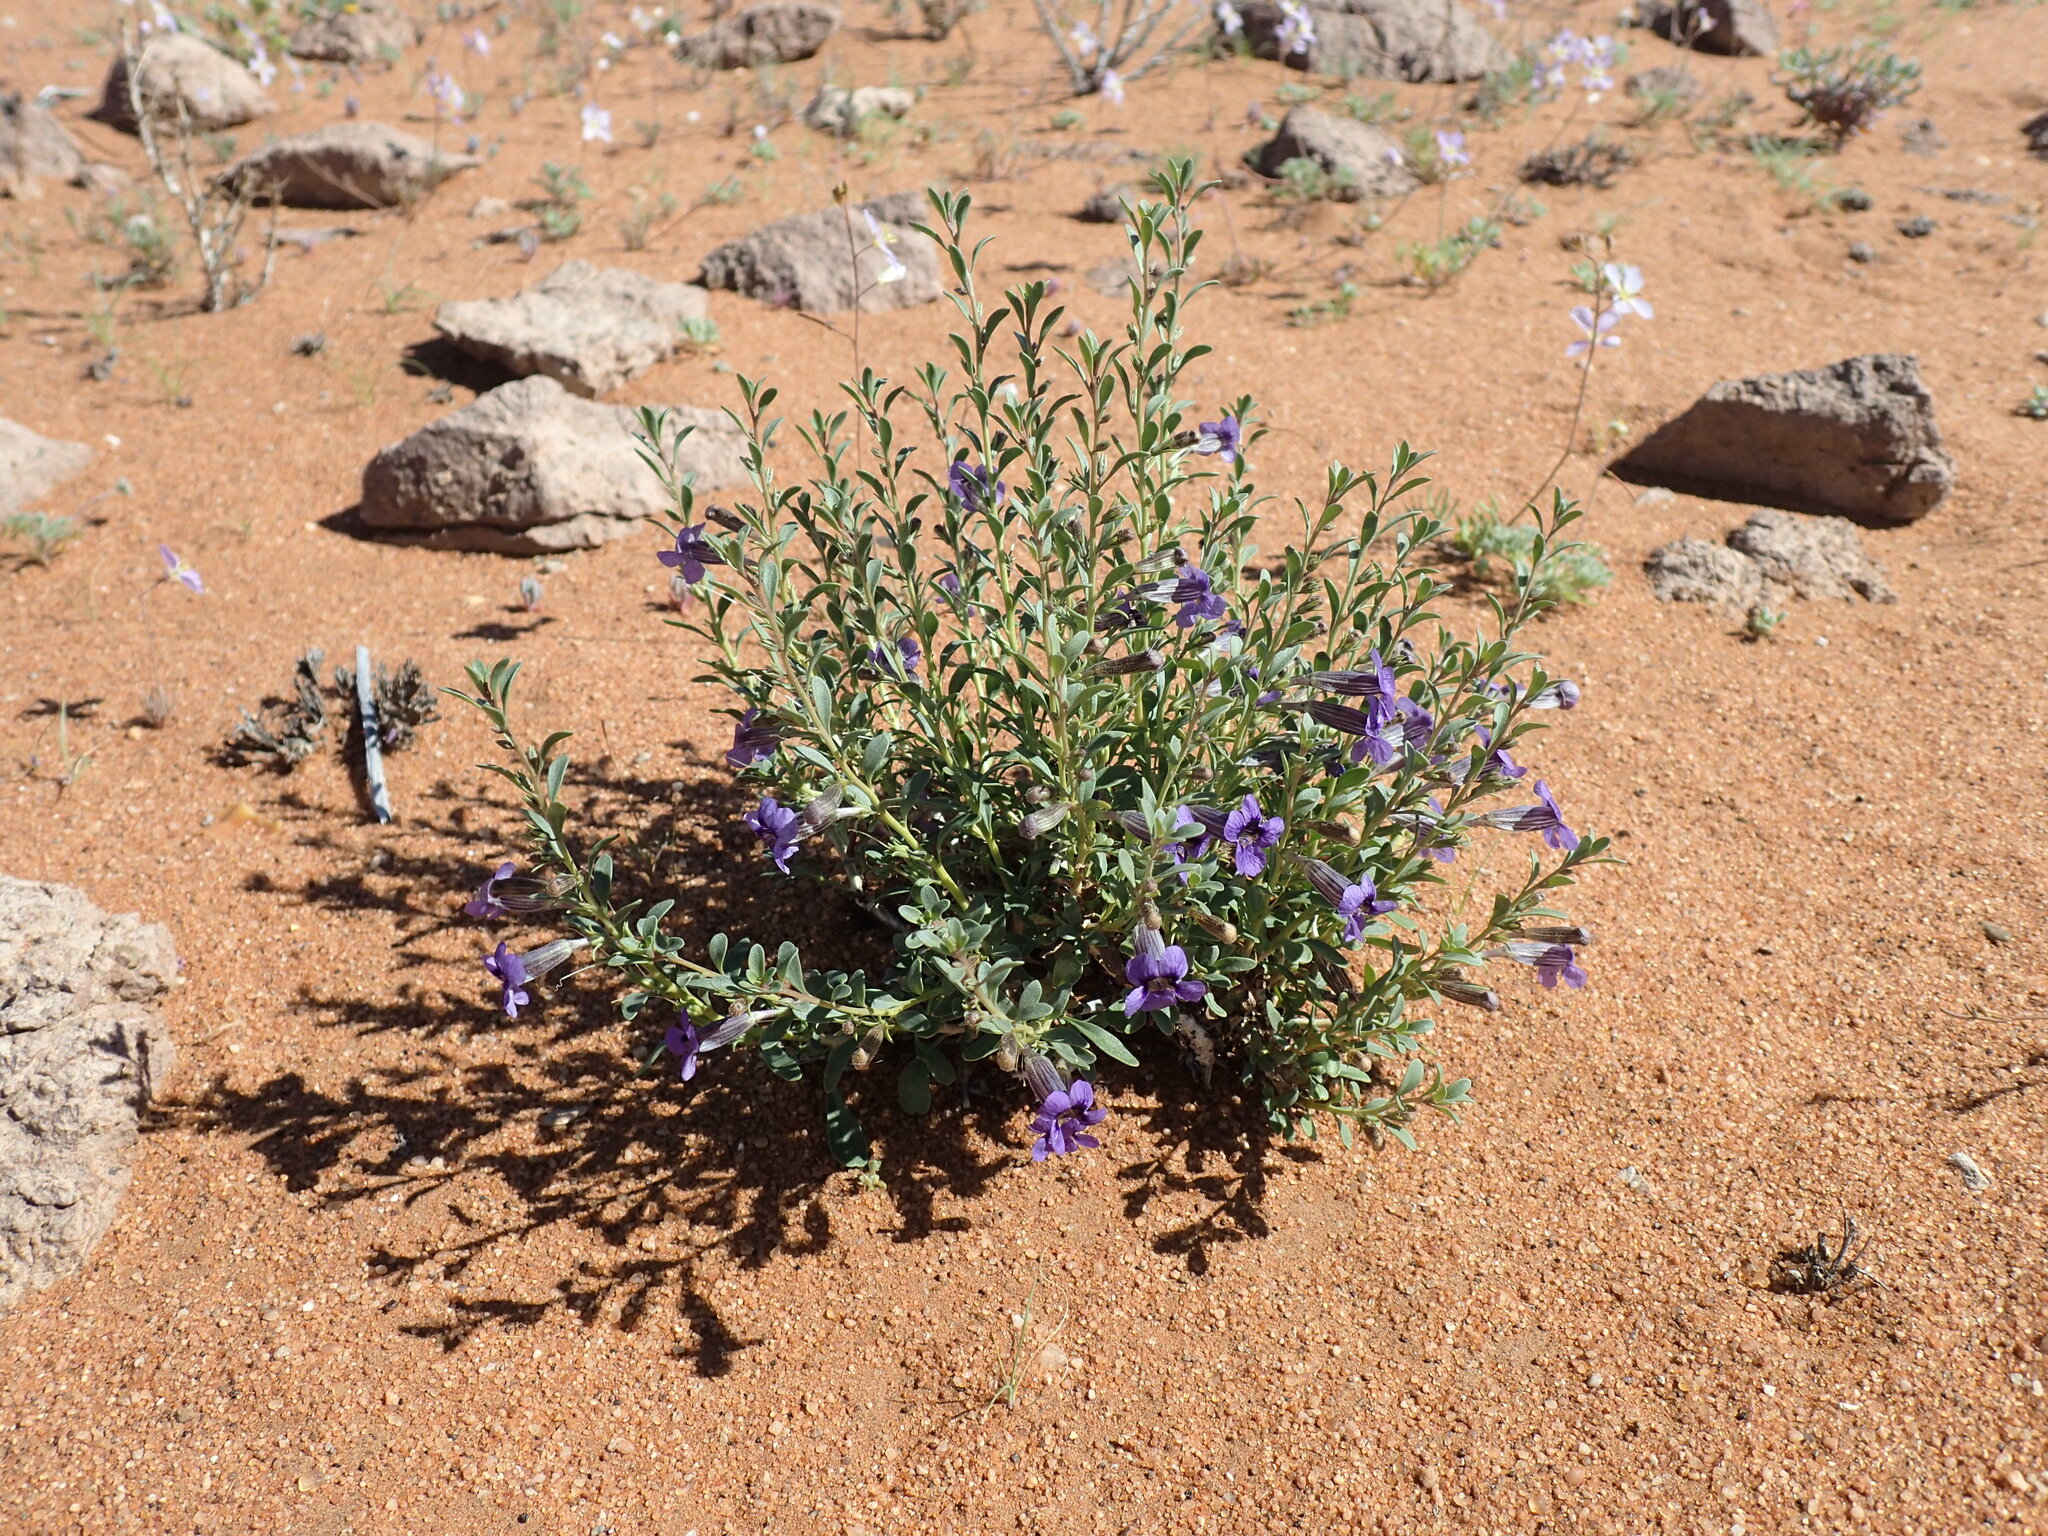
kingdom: Plantae
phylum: Tracheophyta
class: Magnoliopsida
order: Lamiales
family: Scrophulariaceae
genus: Anticharis
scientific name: Anticharis namibensis
